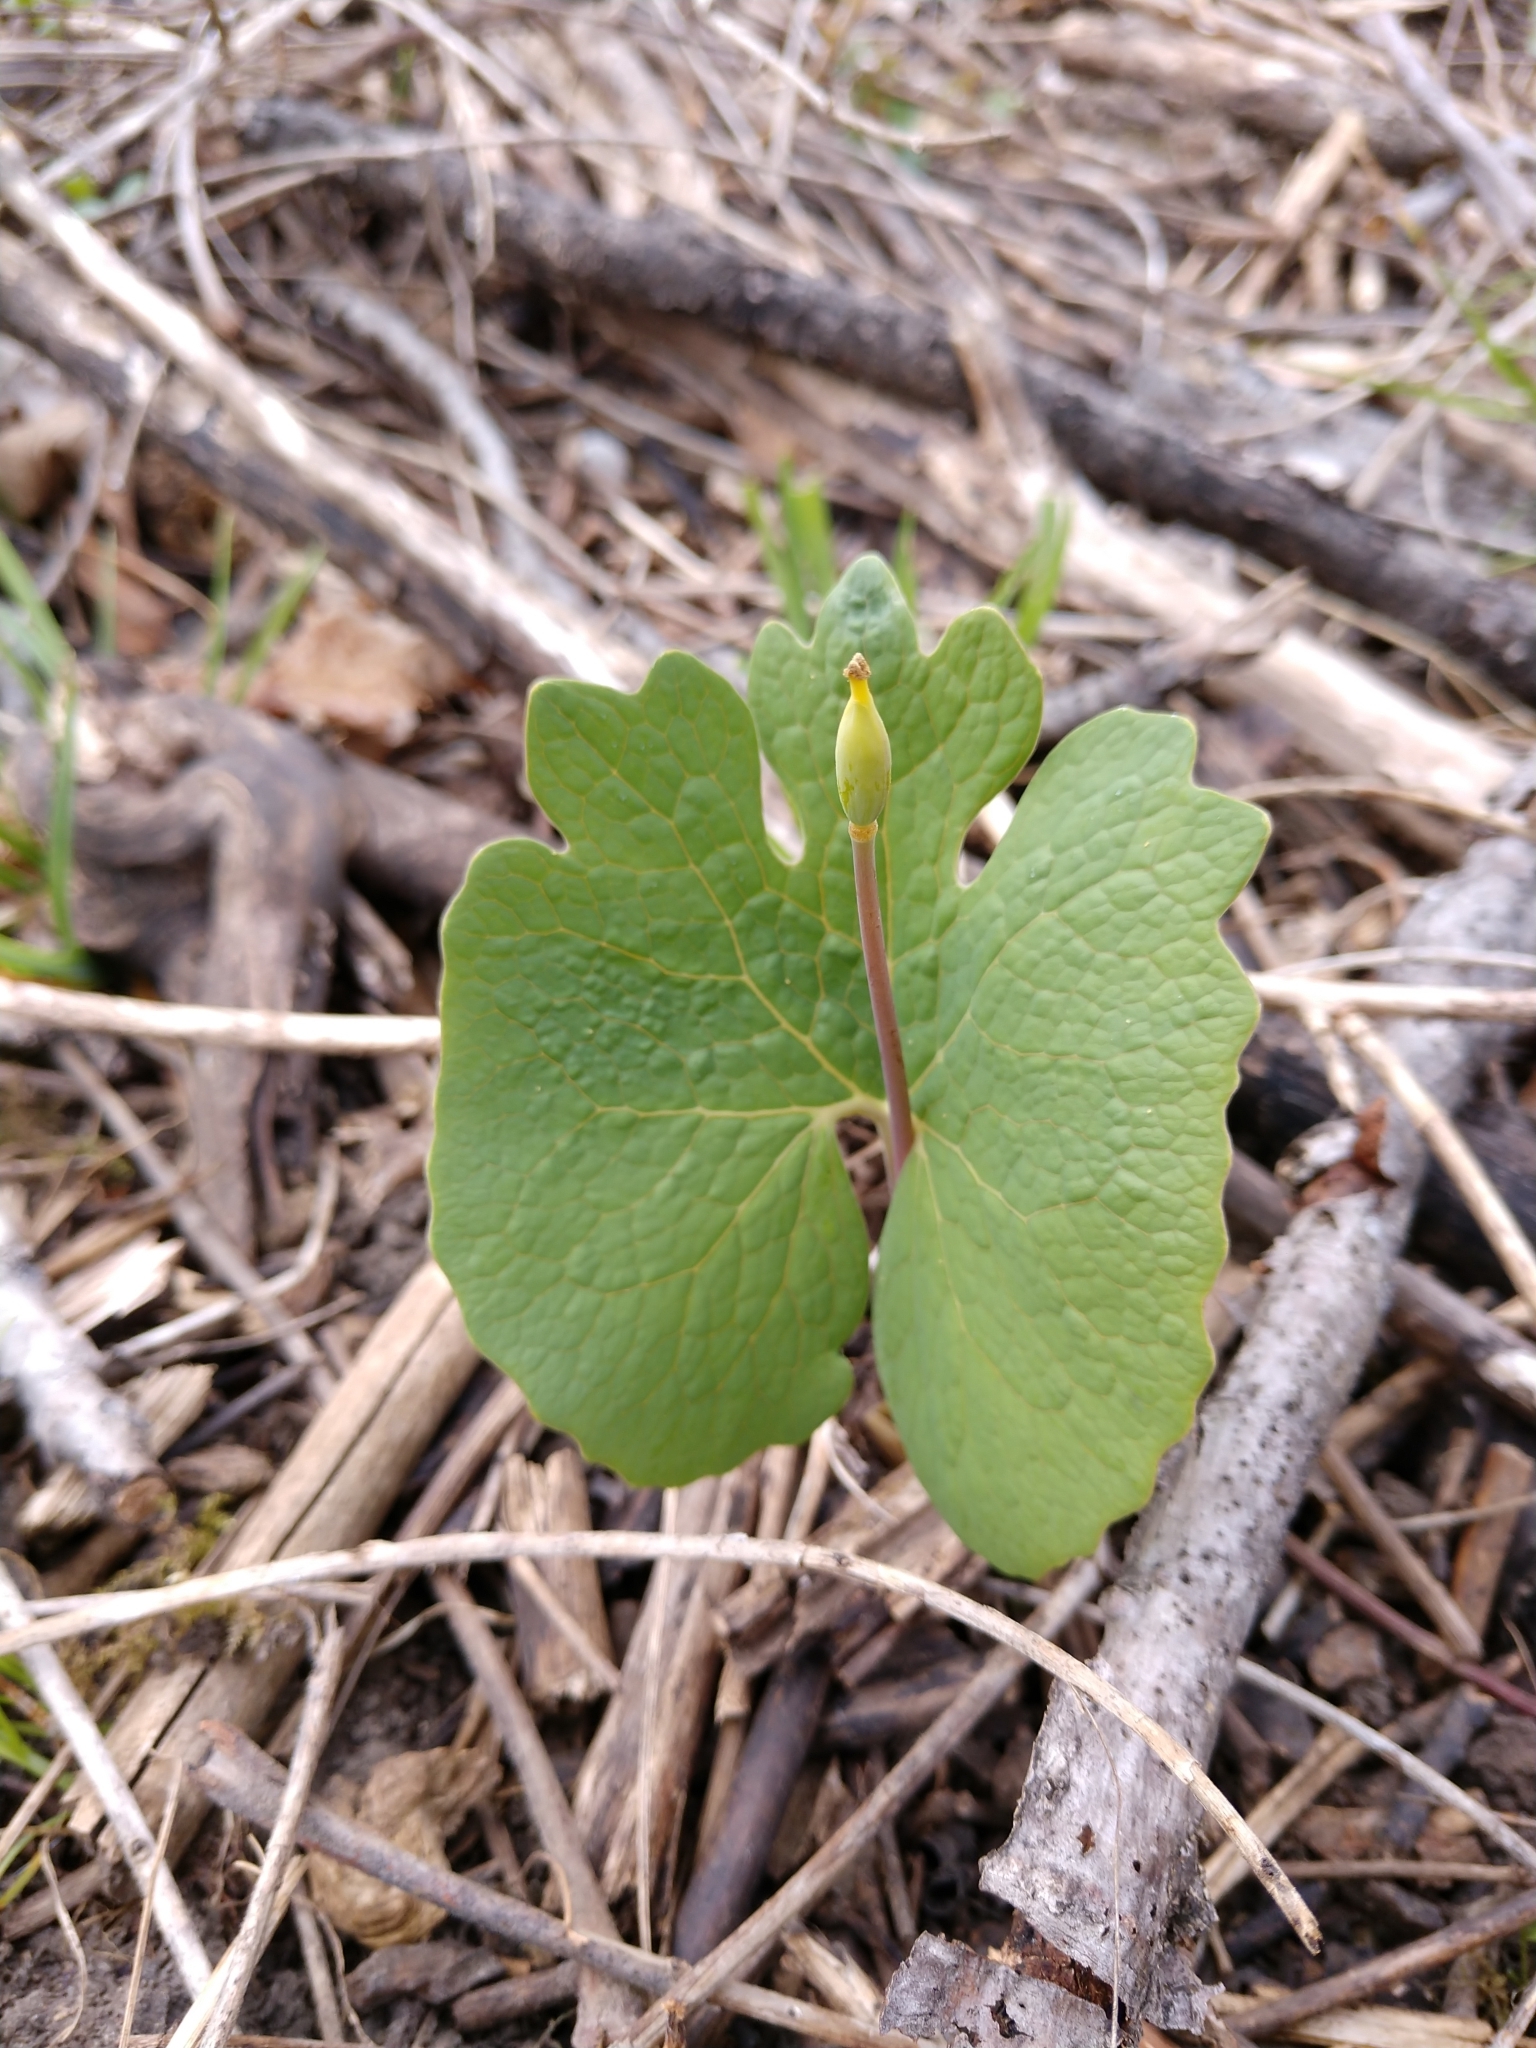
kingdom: Plantae
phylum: Tracheophyta
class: Magnoliopsida
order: Ranunculales
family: Papaveraceae
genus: Sanguinaria
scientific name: Sanguinaria canadensis
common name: Bloodroot
